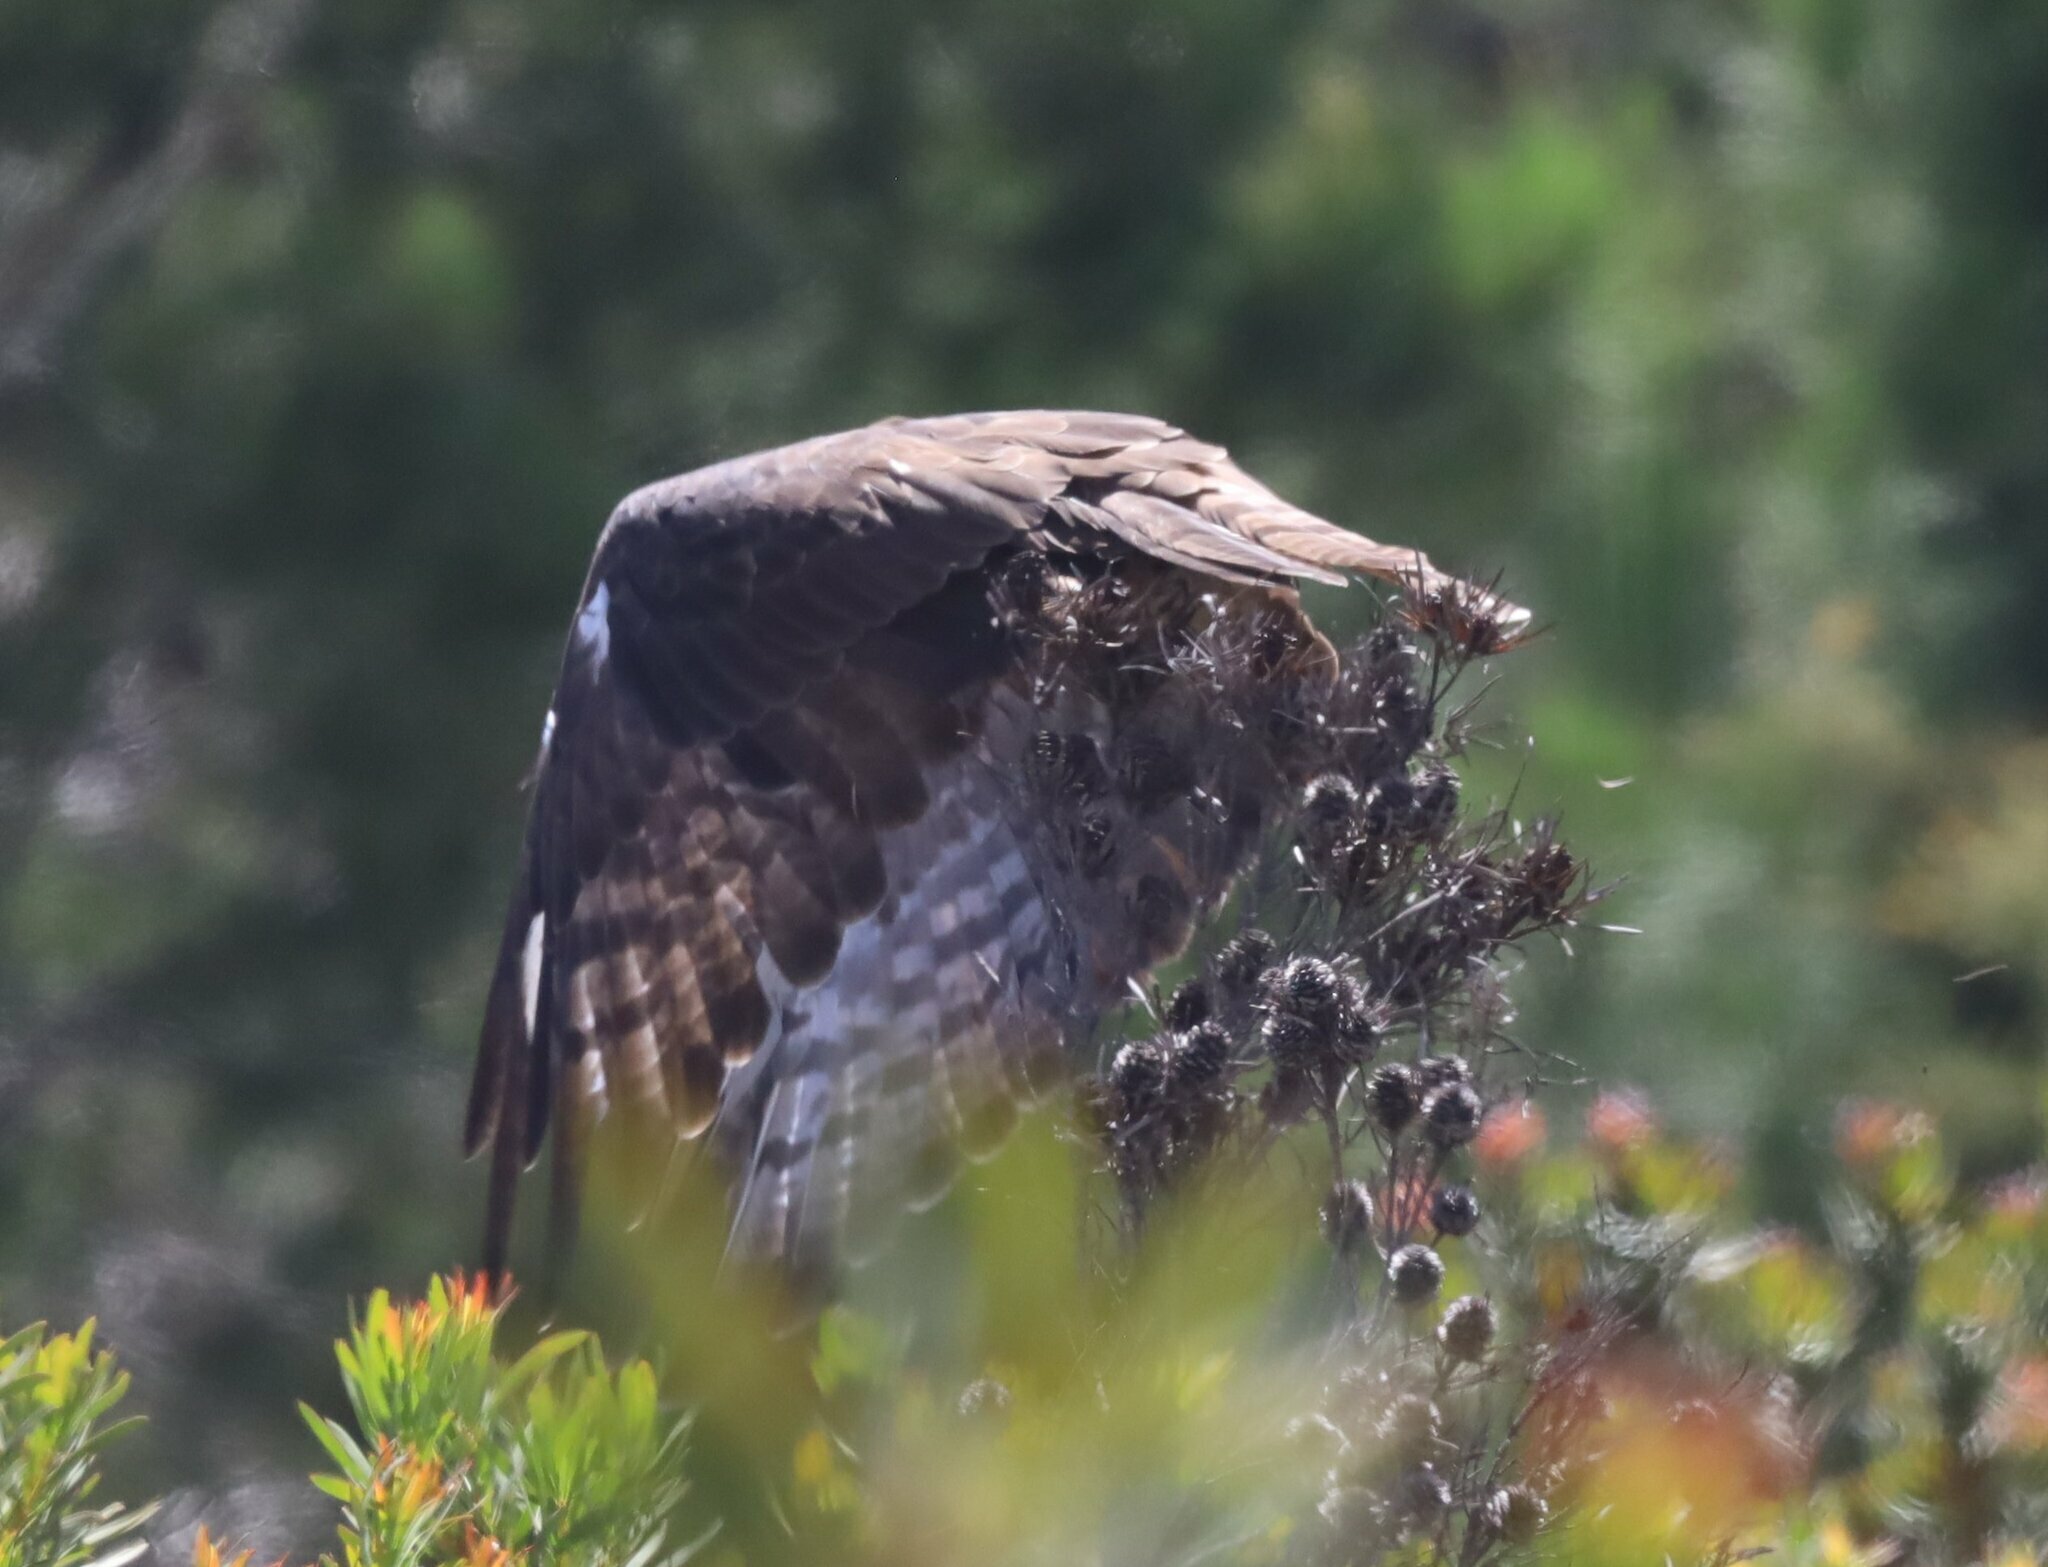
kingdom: Animalia
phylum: Chordata
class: Aves
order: Accipitriformes
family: Accipitridae
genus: Pernis
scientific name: Pernis apivorus
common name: European honey buzzard
